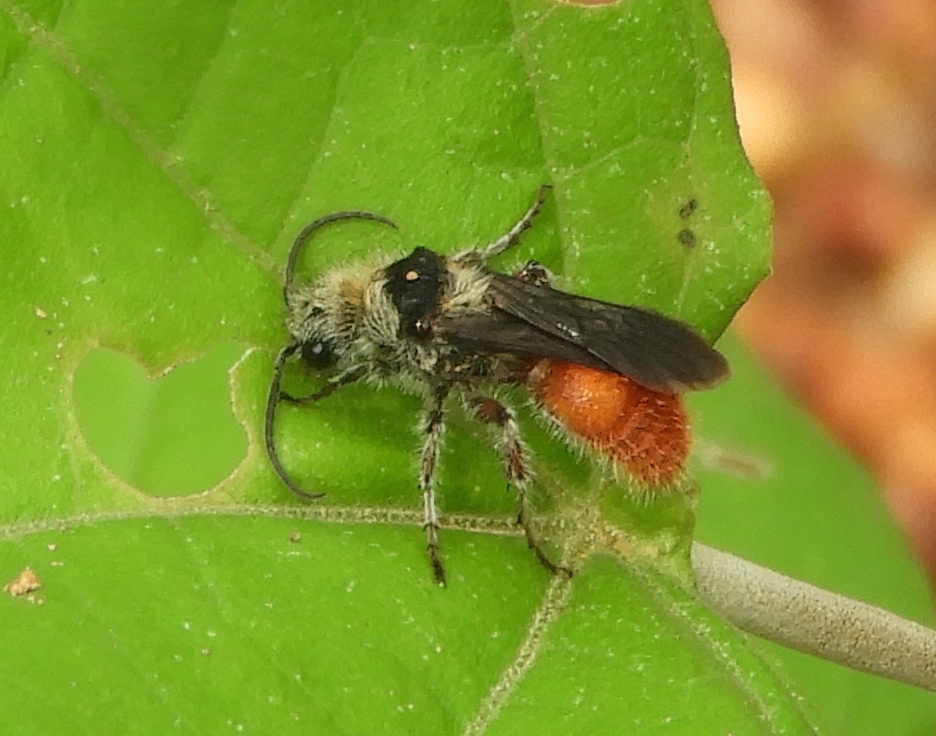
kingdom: Animalia
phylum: Arthropoda
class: Insecta
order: Hymenoptera
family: Mutillidae
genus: Dasymutilla
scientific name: Dasymutilla foxi
